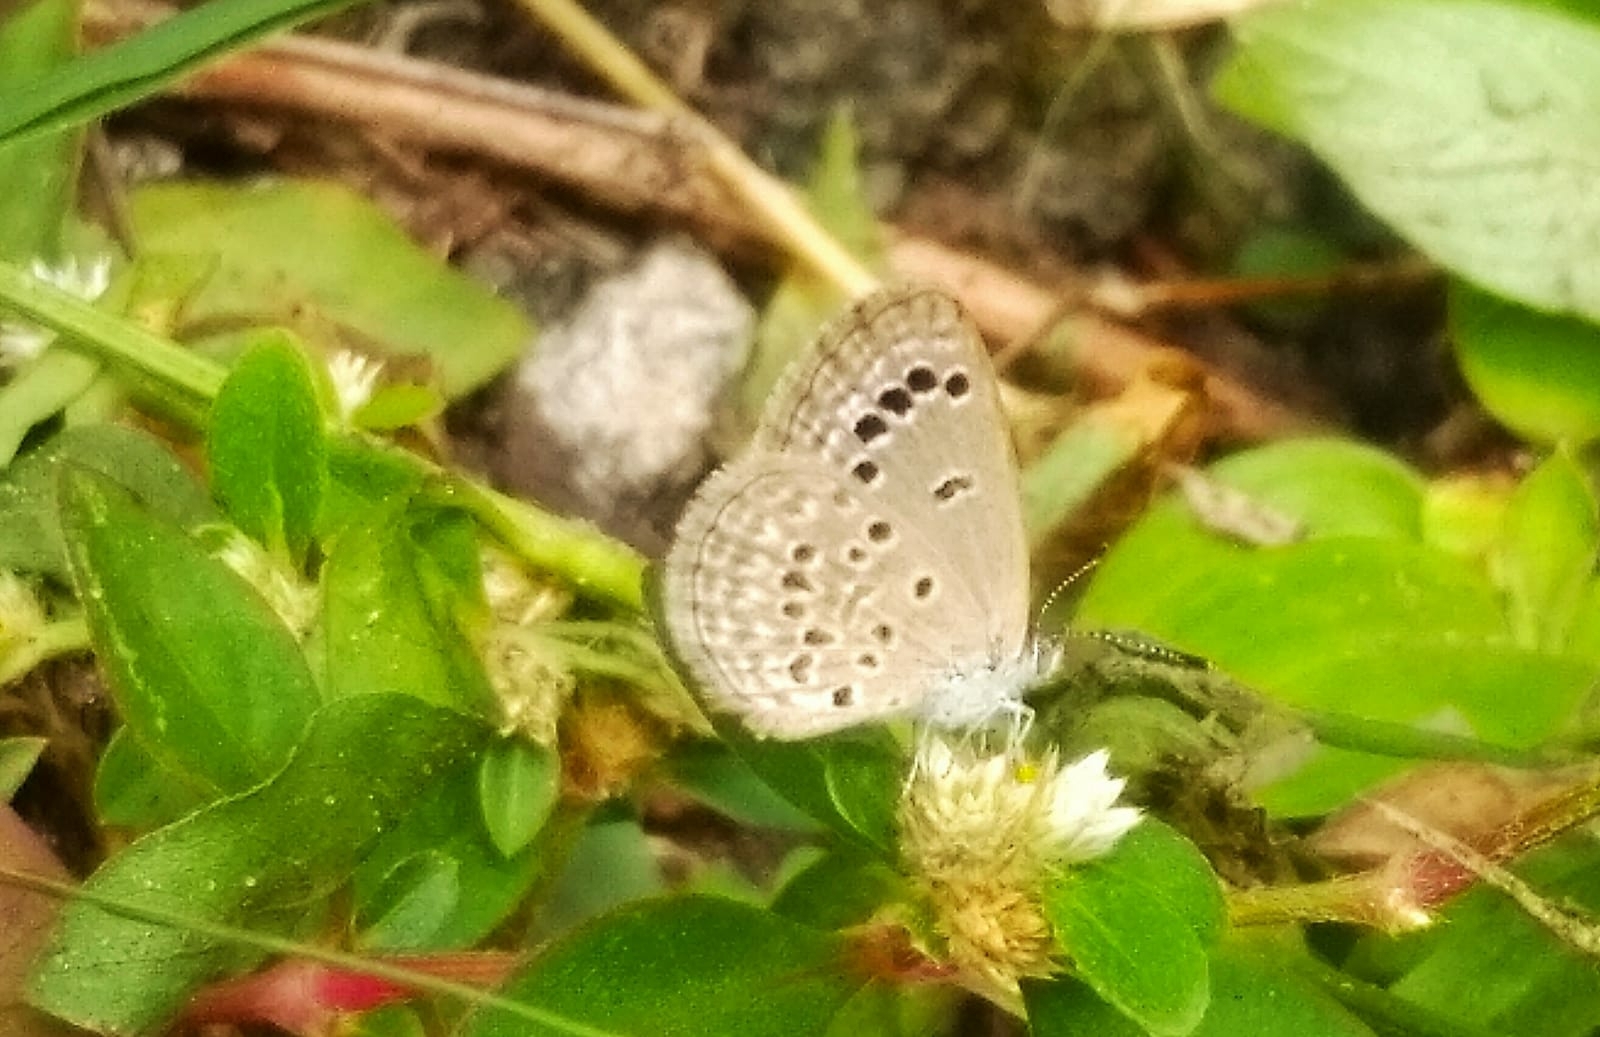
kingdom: Animalia
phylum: Arthropoda
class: Insecta
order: Lepidoptera
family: Lycaenidae
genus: Zizina
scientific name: Zizina otis
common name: Lesser grass blue
